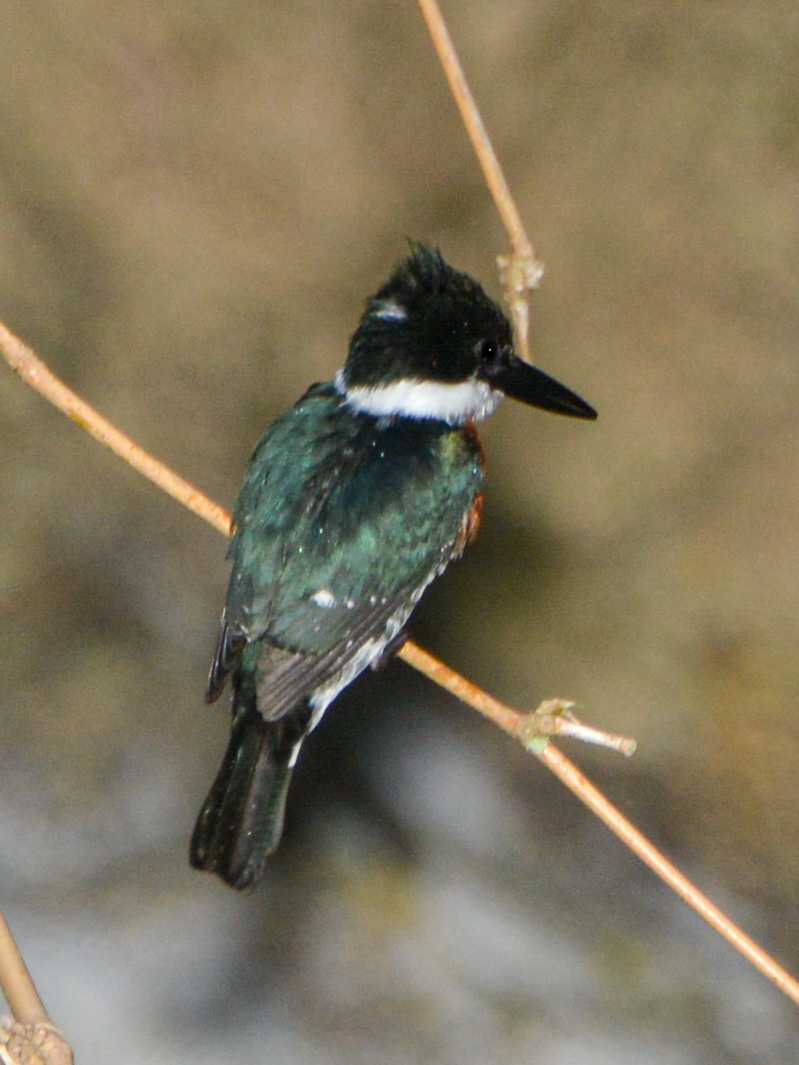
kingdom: Animalia
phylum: Chordata
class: Aves
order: Coraciiformes
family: Alcedinidae
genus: Chloroceryle
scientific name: Chloroceryle americana
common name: Green kingfisher
